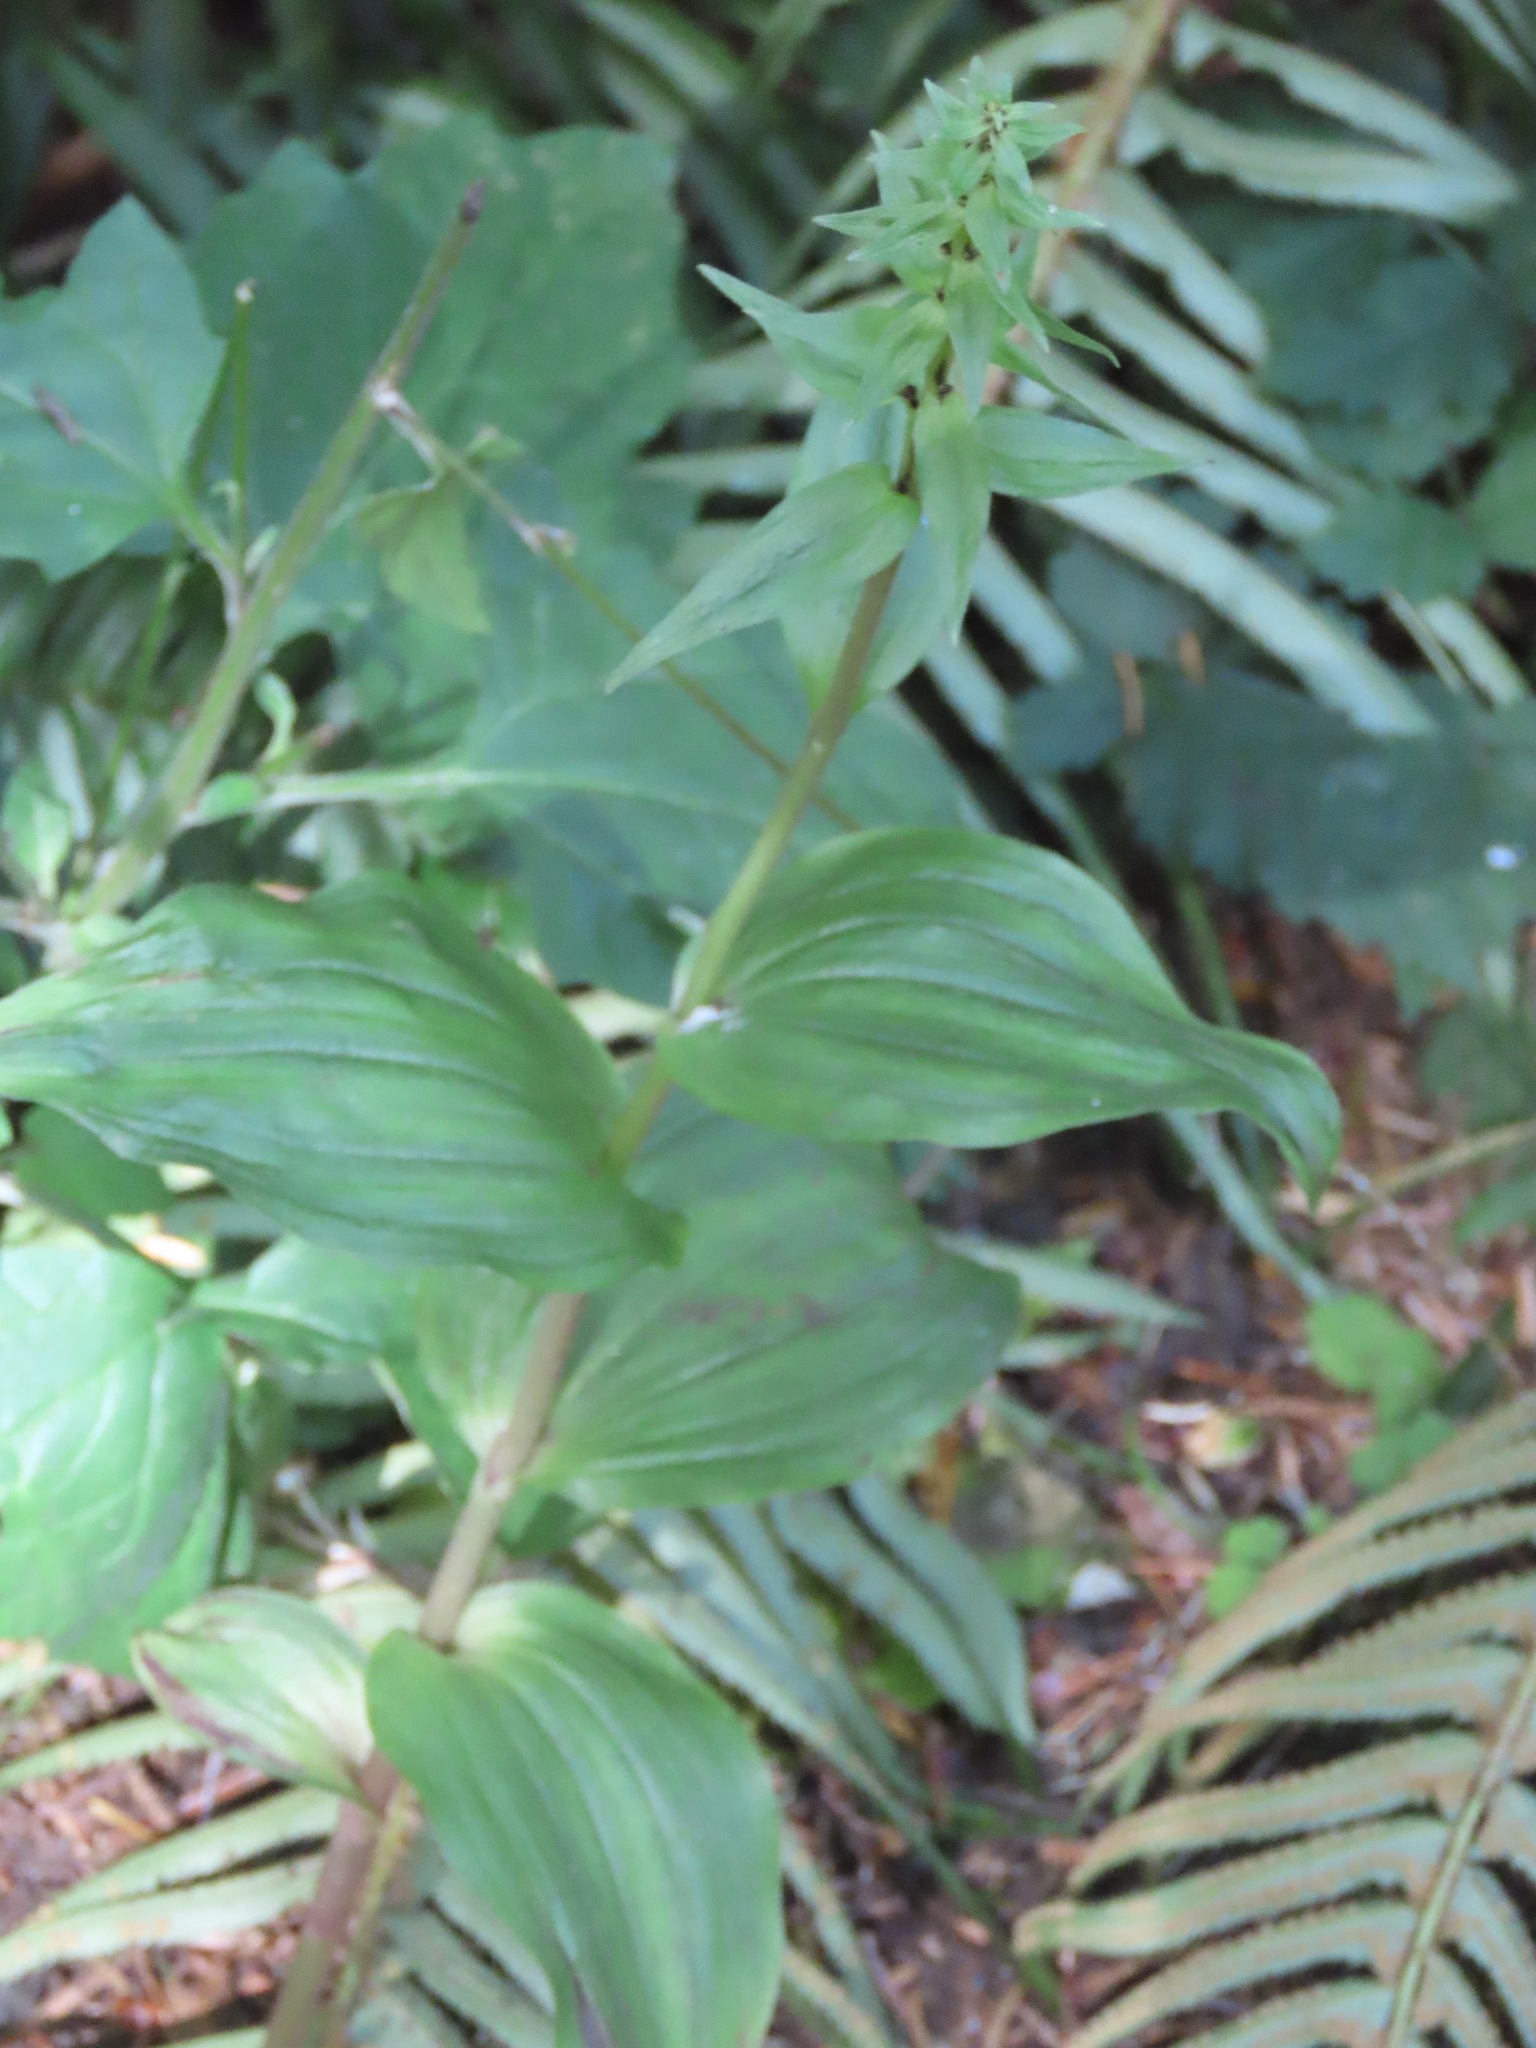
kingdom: Plantae
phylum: Tracheophyta
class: Liliopsida
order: Asparagales
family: Orchidaceae
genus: Epipactis
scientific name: Epipactis helleborine
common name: Broad-leaved helleborine
